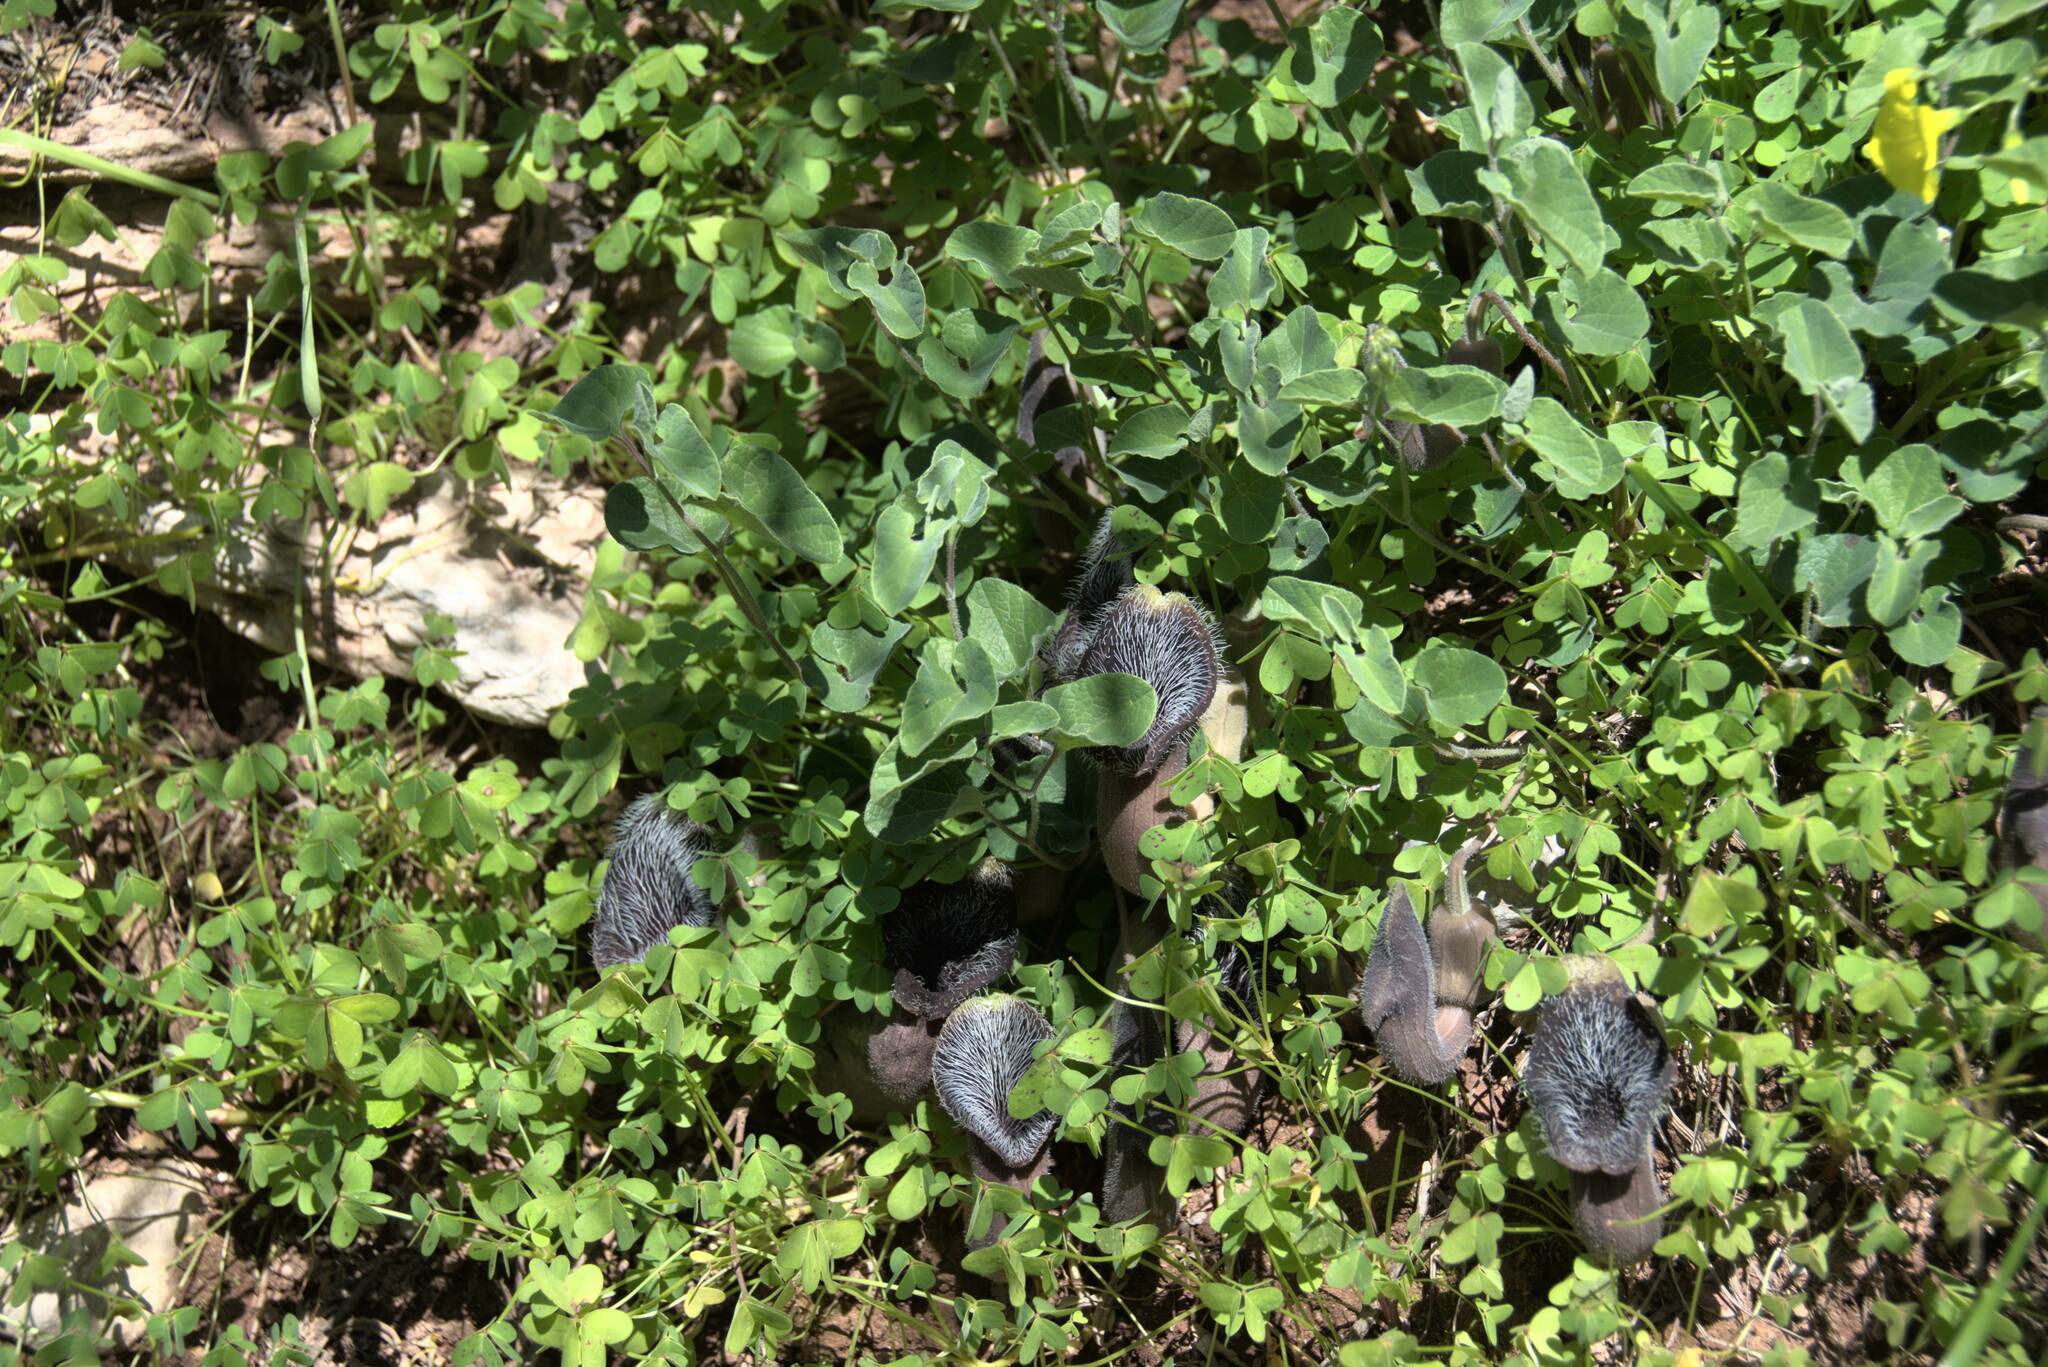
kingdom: Plantae
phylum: Tracheophyta
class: Magnoliopsida
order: Piperales
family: Aristolochiaceae
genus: Aristolochia
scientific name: Aristolochia cretica
